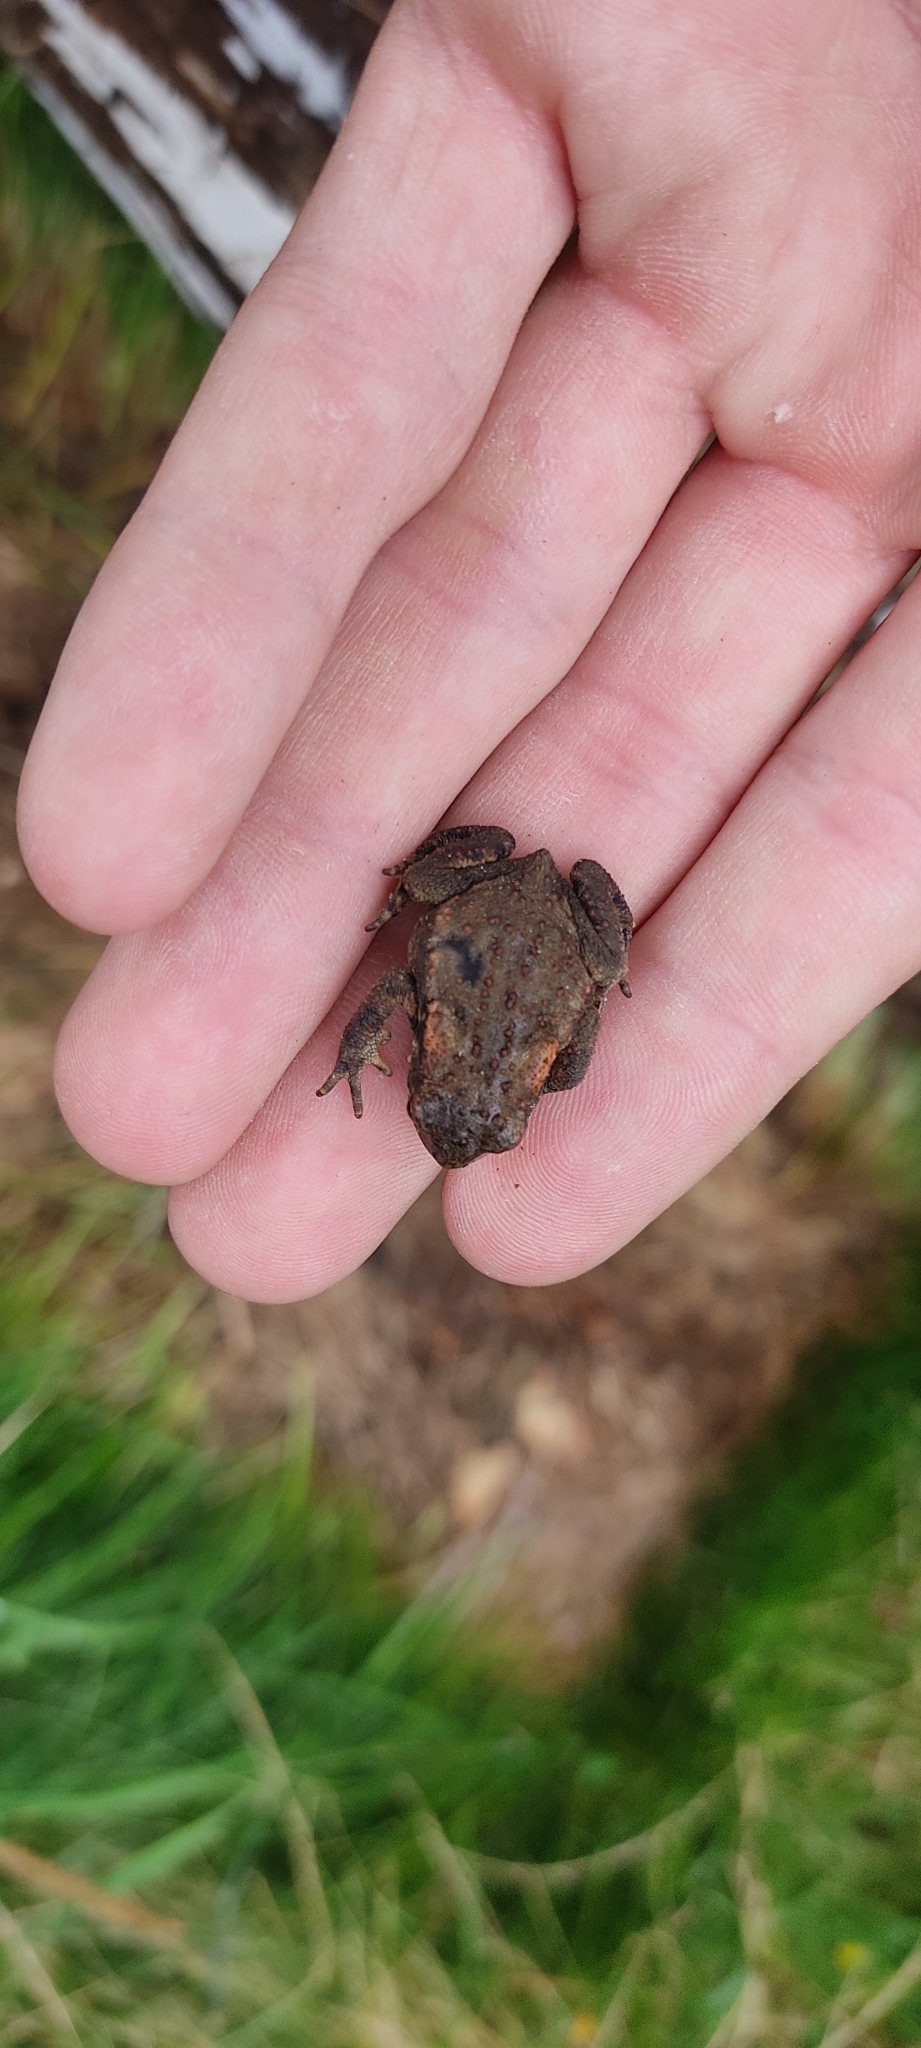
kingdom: Animalia
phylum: Chordata
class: Amphibia
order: Anura
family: Bufonidae
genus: Bufo
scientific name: Bufo spinosus
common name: Western common toad
